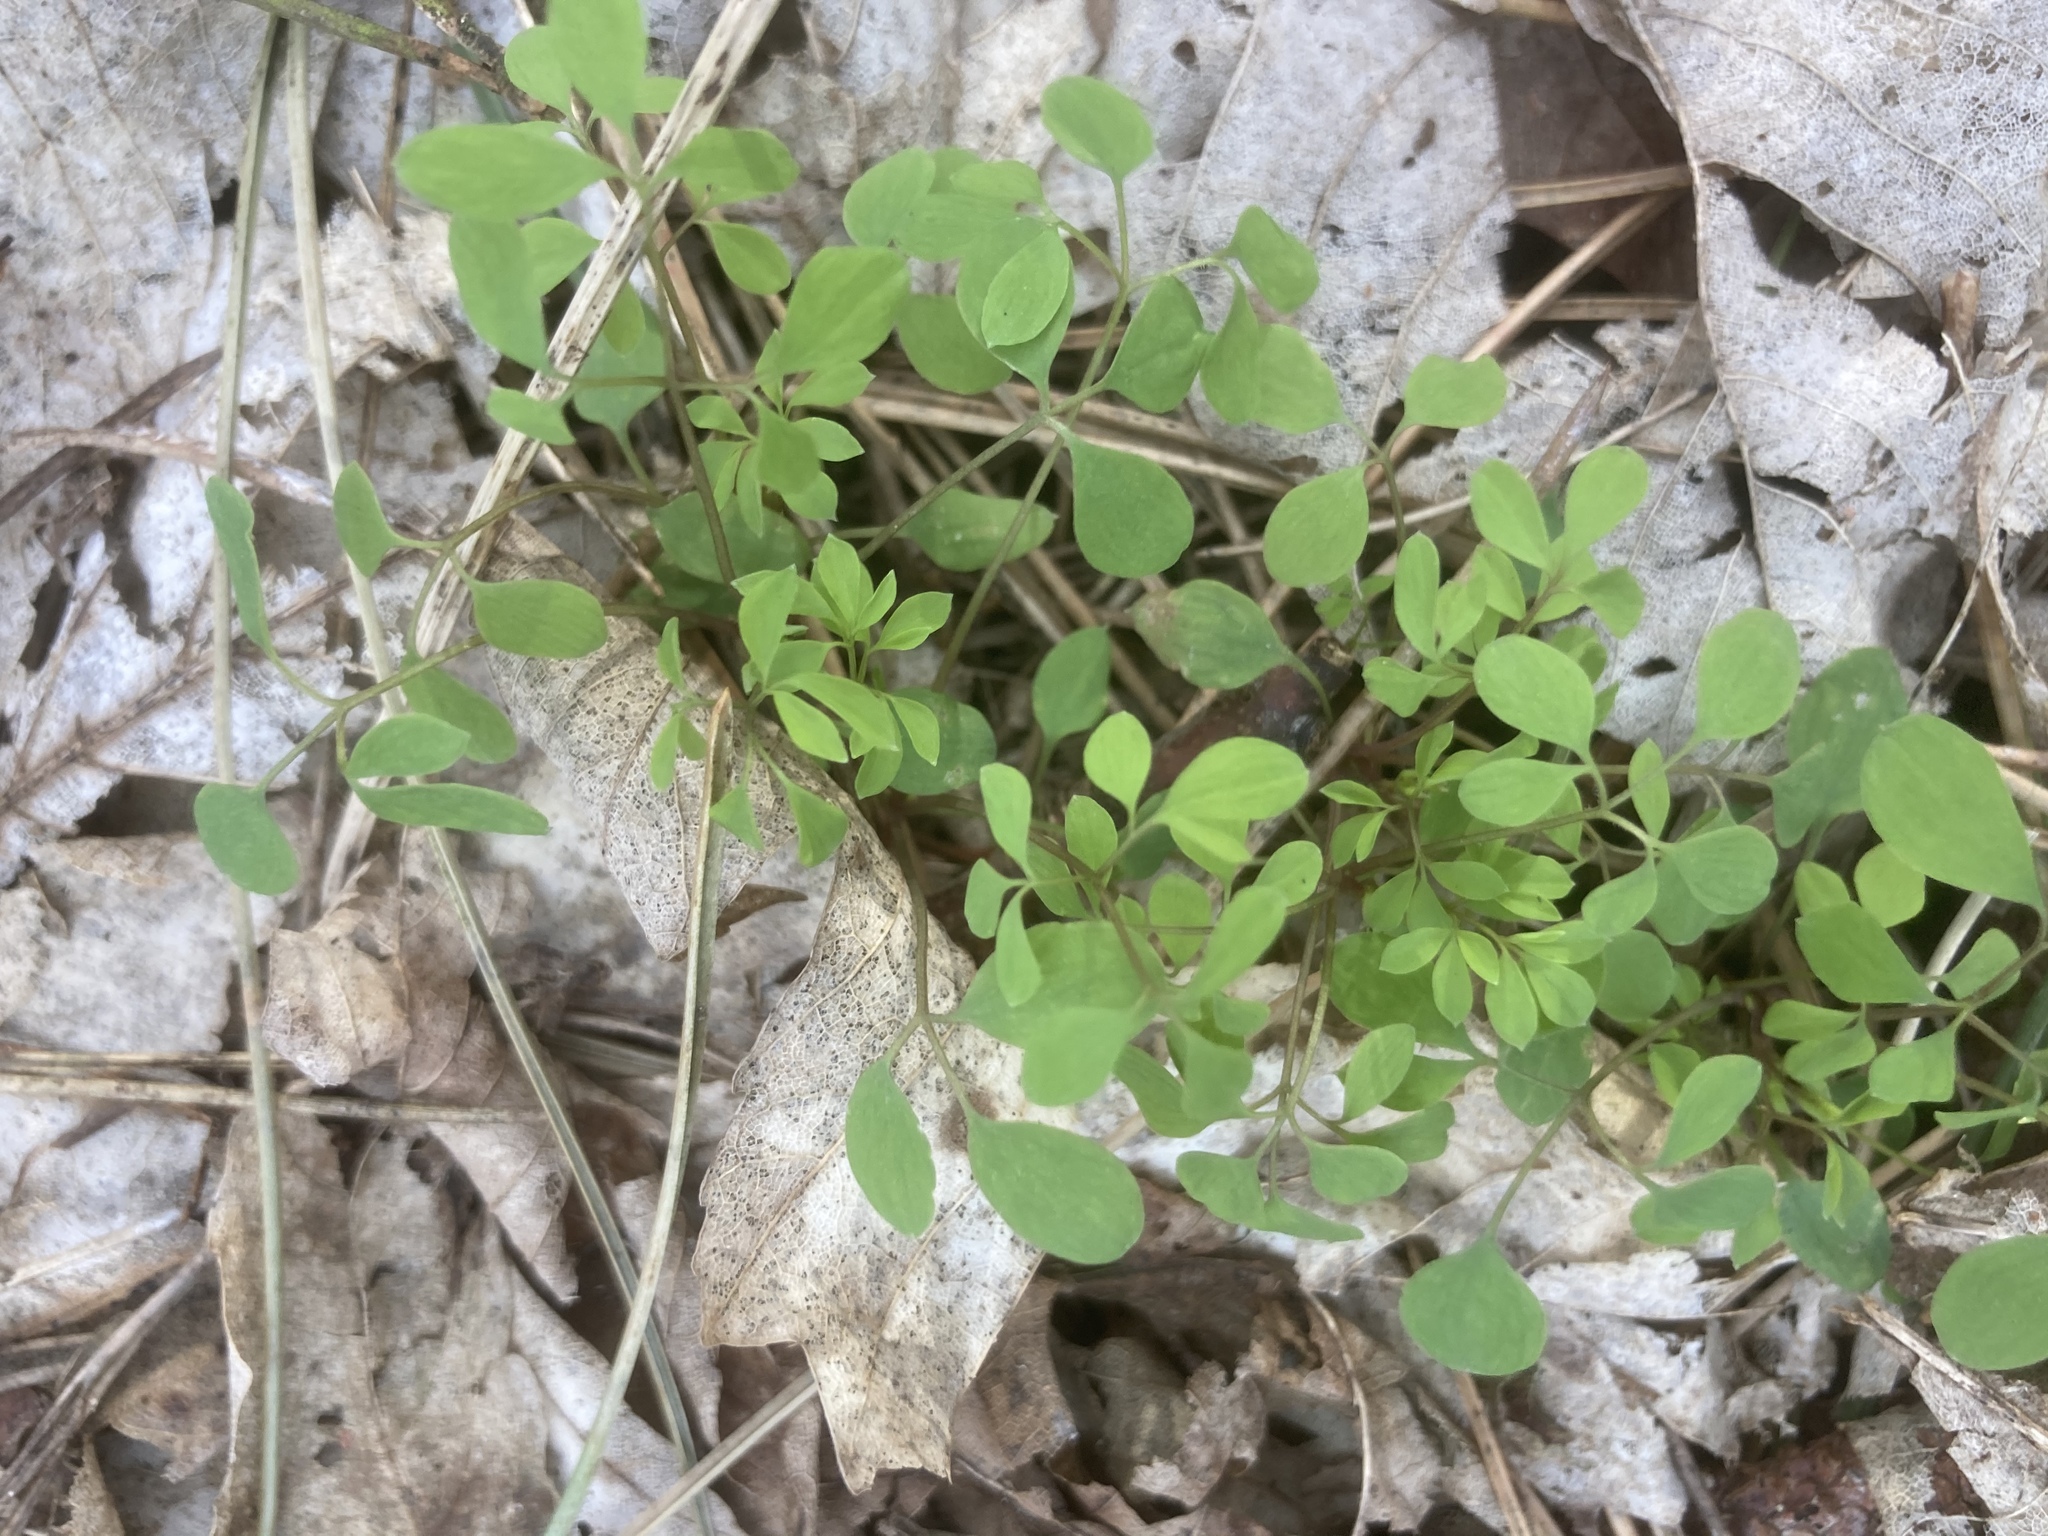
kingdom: Plantae
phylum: Tracheophyta
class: Magnoliopsida
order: Ranunculales
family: Papaveraceae
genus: Ceratocapnos
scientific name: Ceratocapnos claviculata
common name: Climbing corydalis
